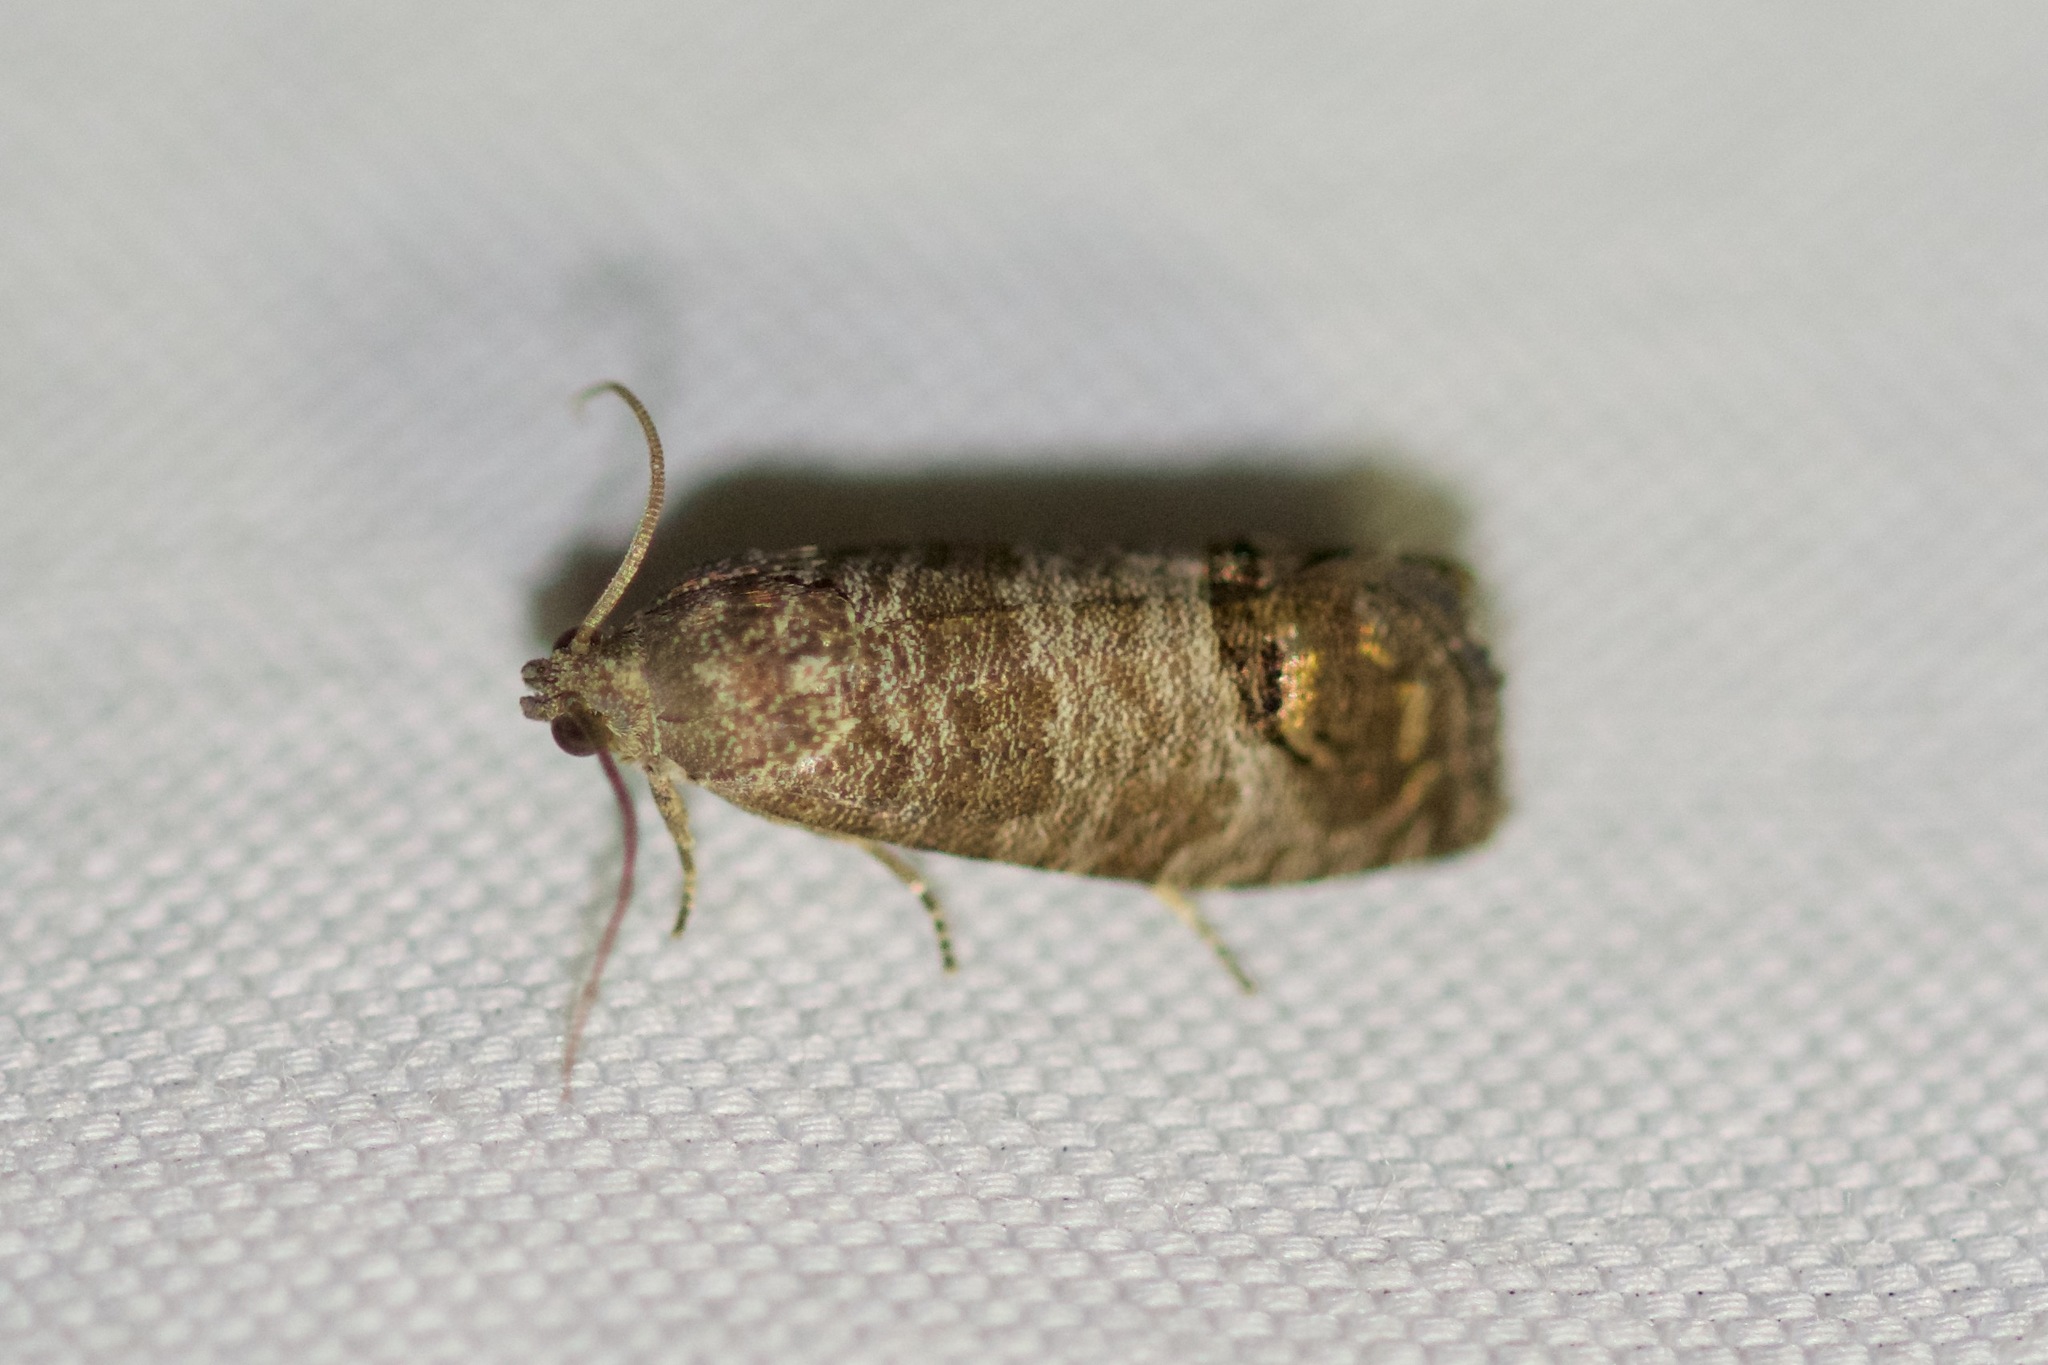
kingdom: Animalia
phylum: Arthropoda
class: Insecta
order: Lepidoptera
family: Tortricidae
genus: Cydia
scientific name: Cydia pomonella
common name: Codling moth
